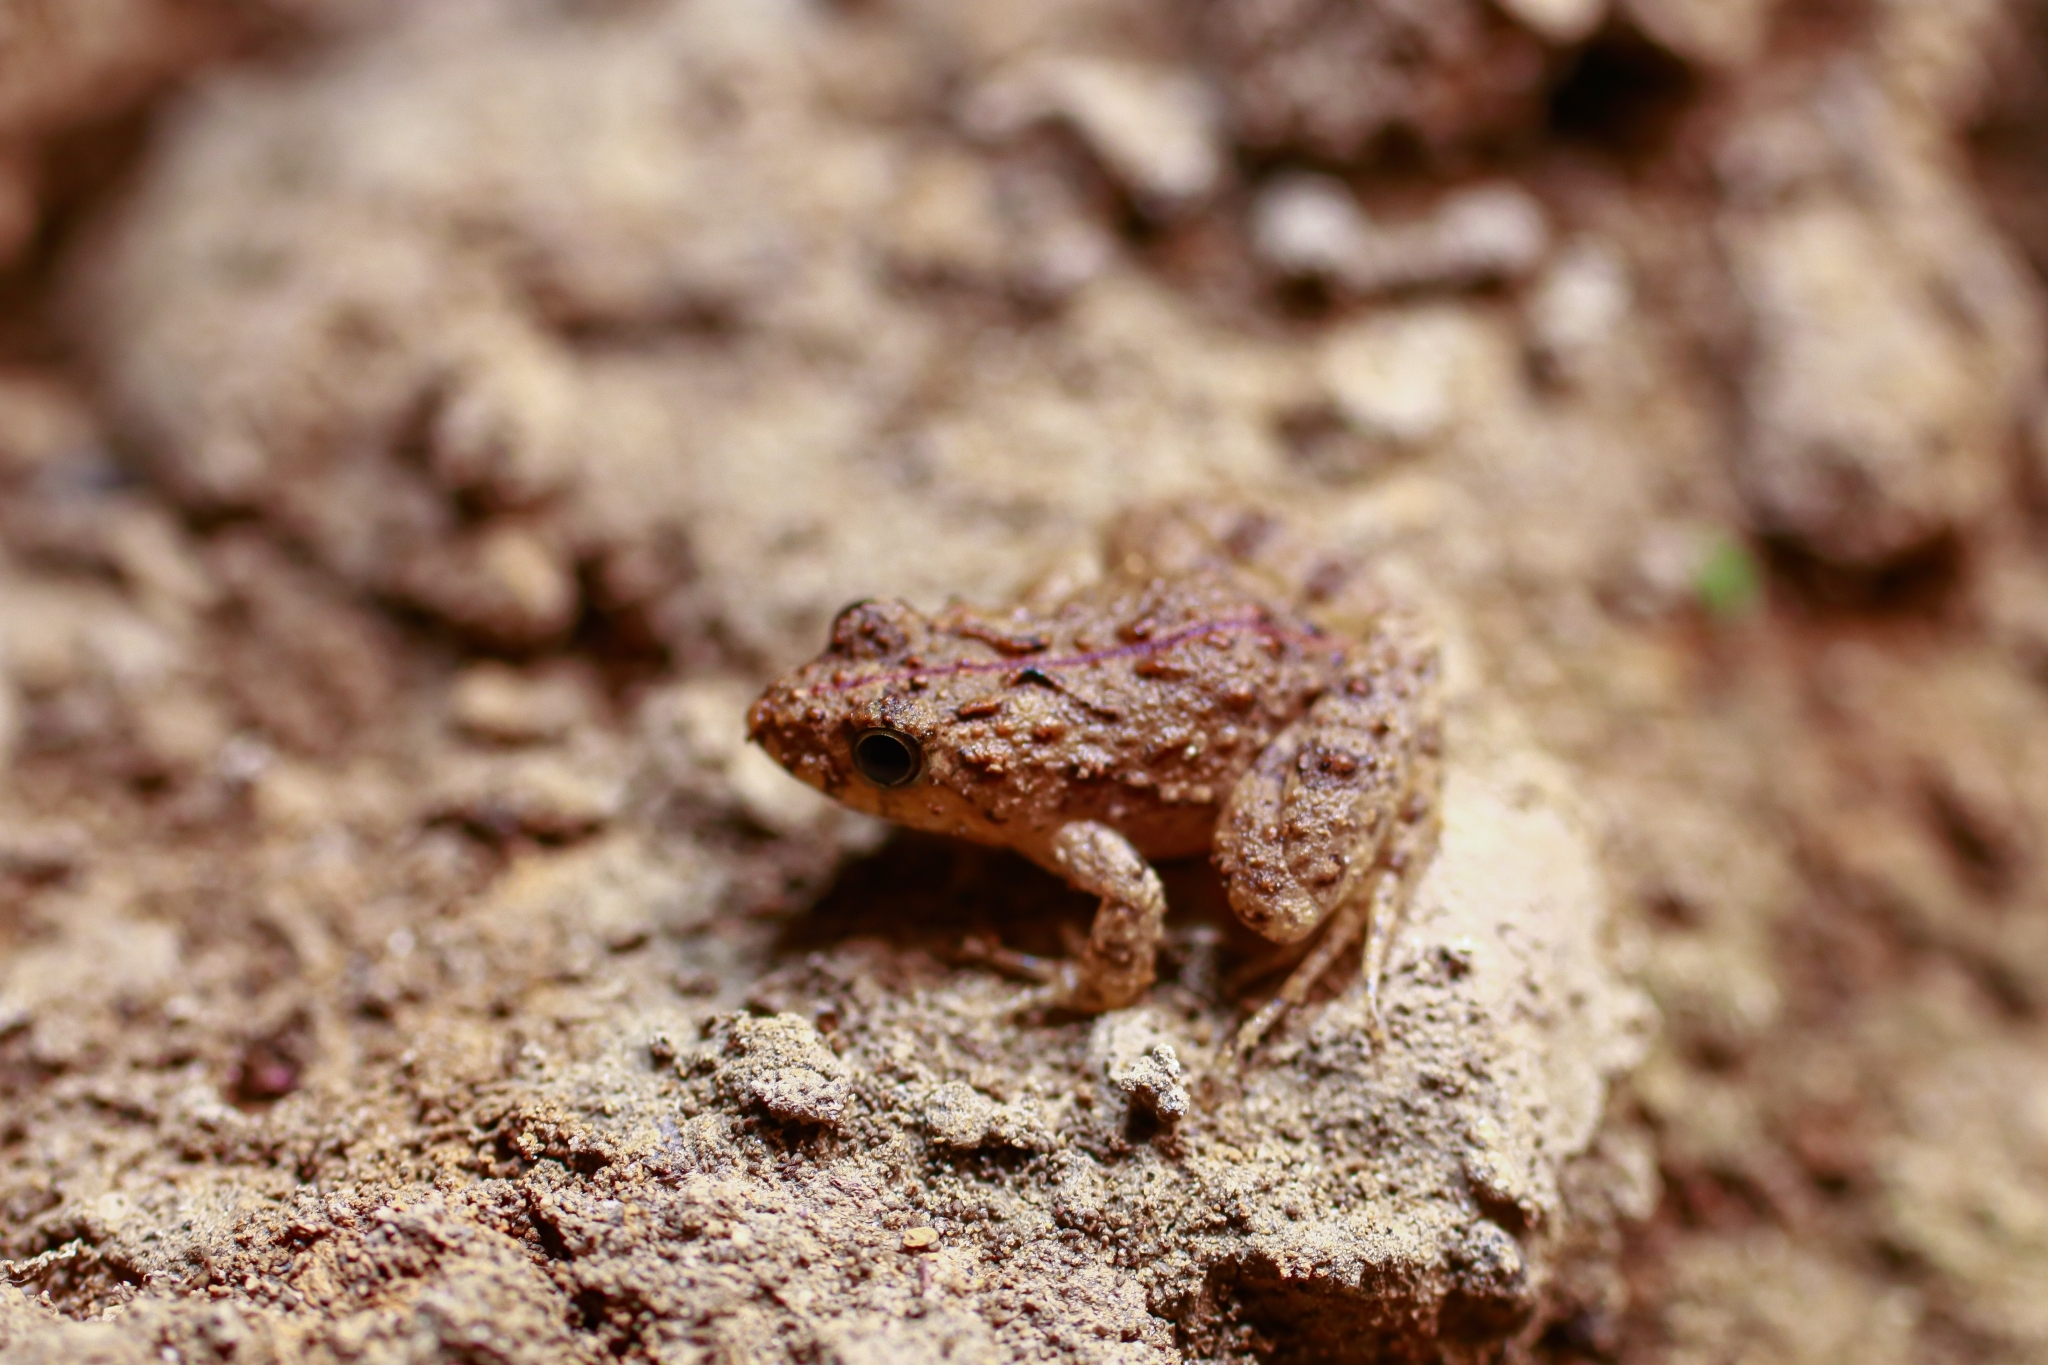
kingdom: Animalia
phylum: Chordata
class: Amphibia
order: Anura
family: Leptodactylidae
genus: Pseudopaludicola
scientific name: Pseudopaludicola pusilla
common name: Colombian swamp frog
